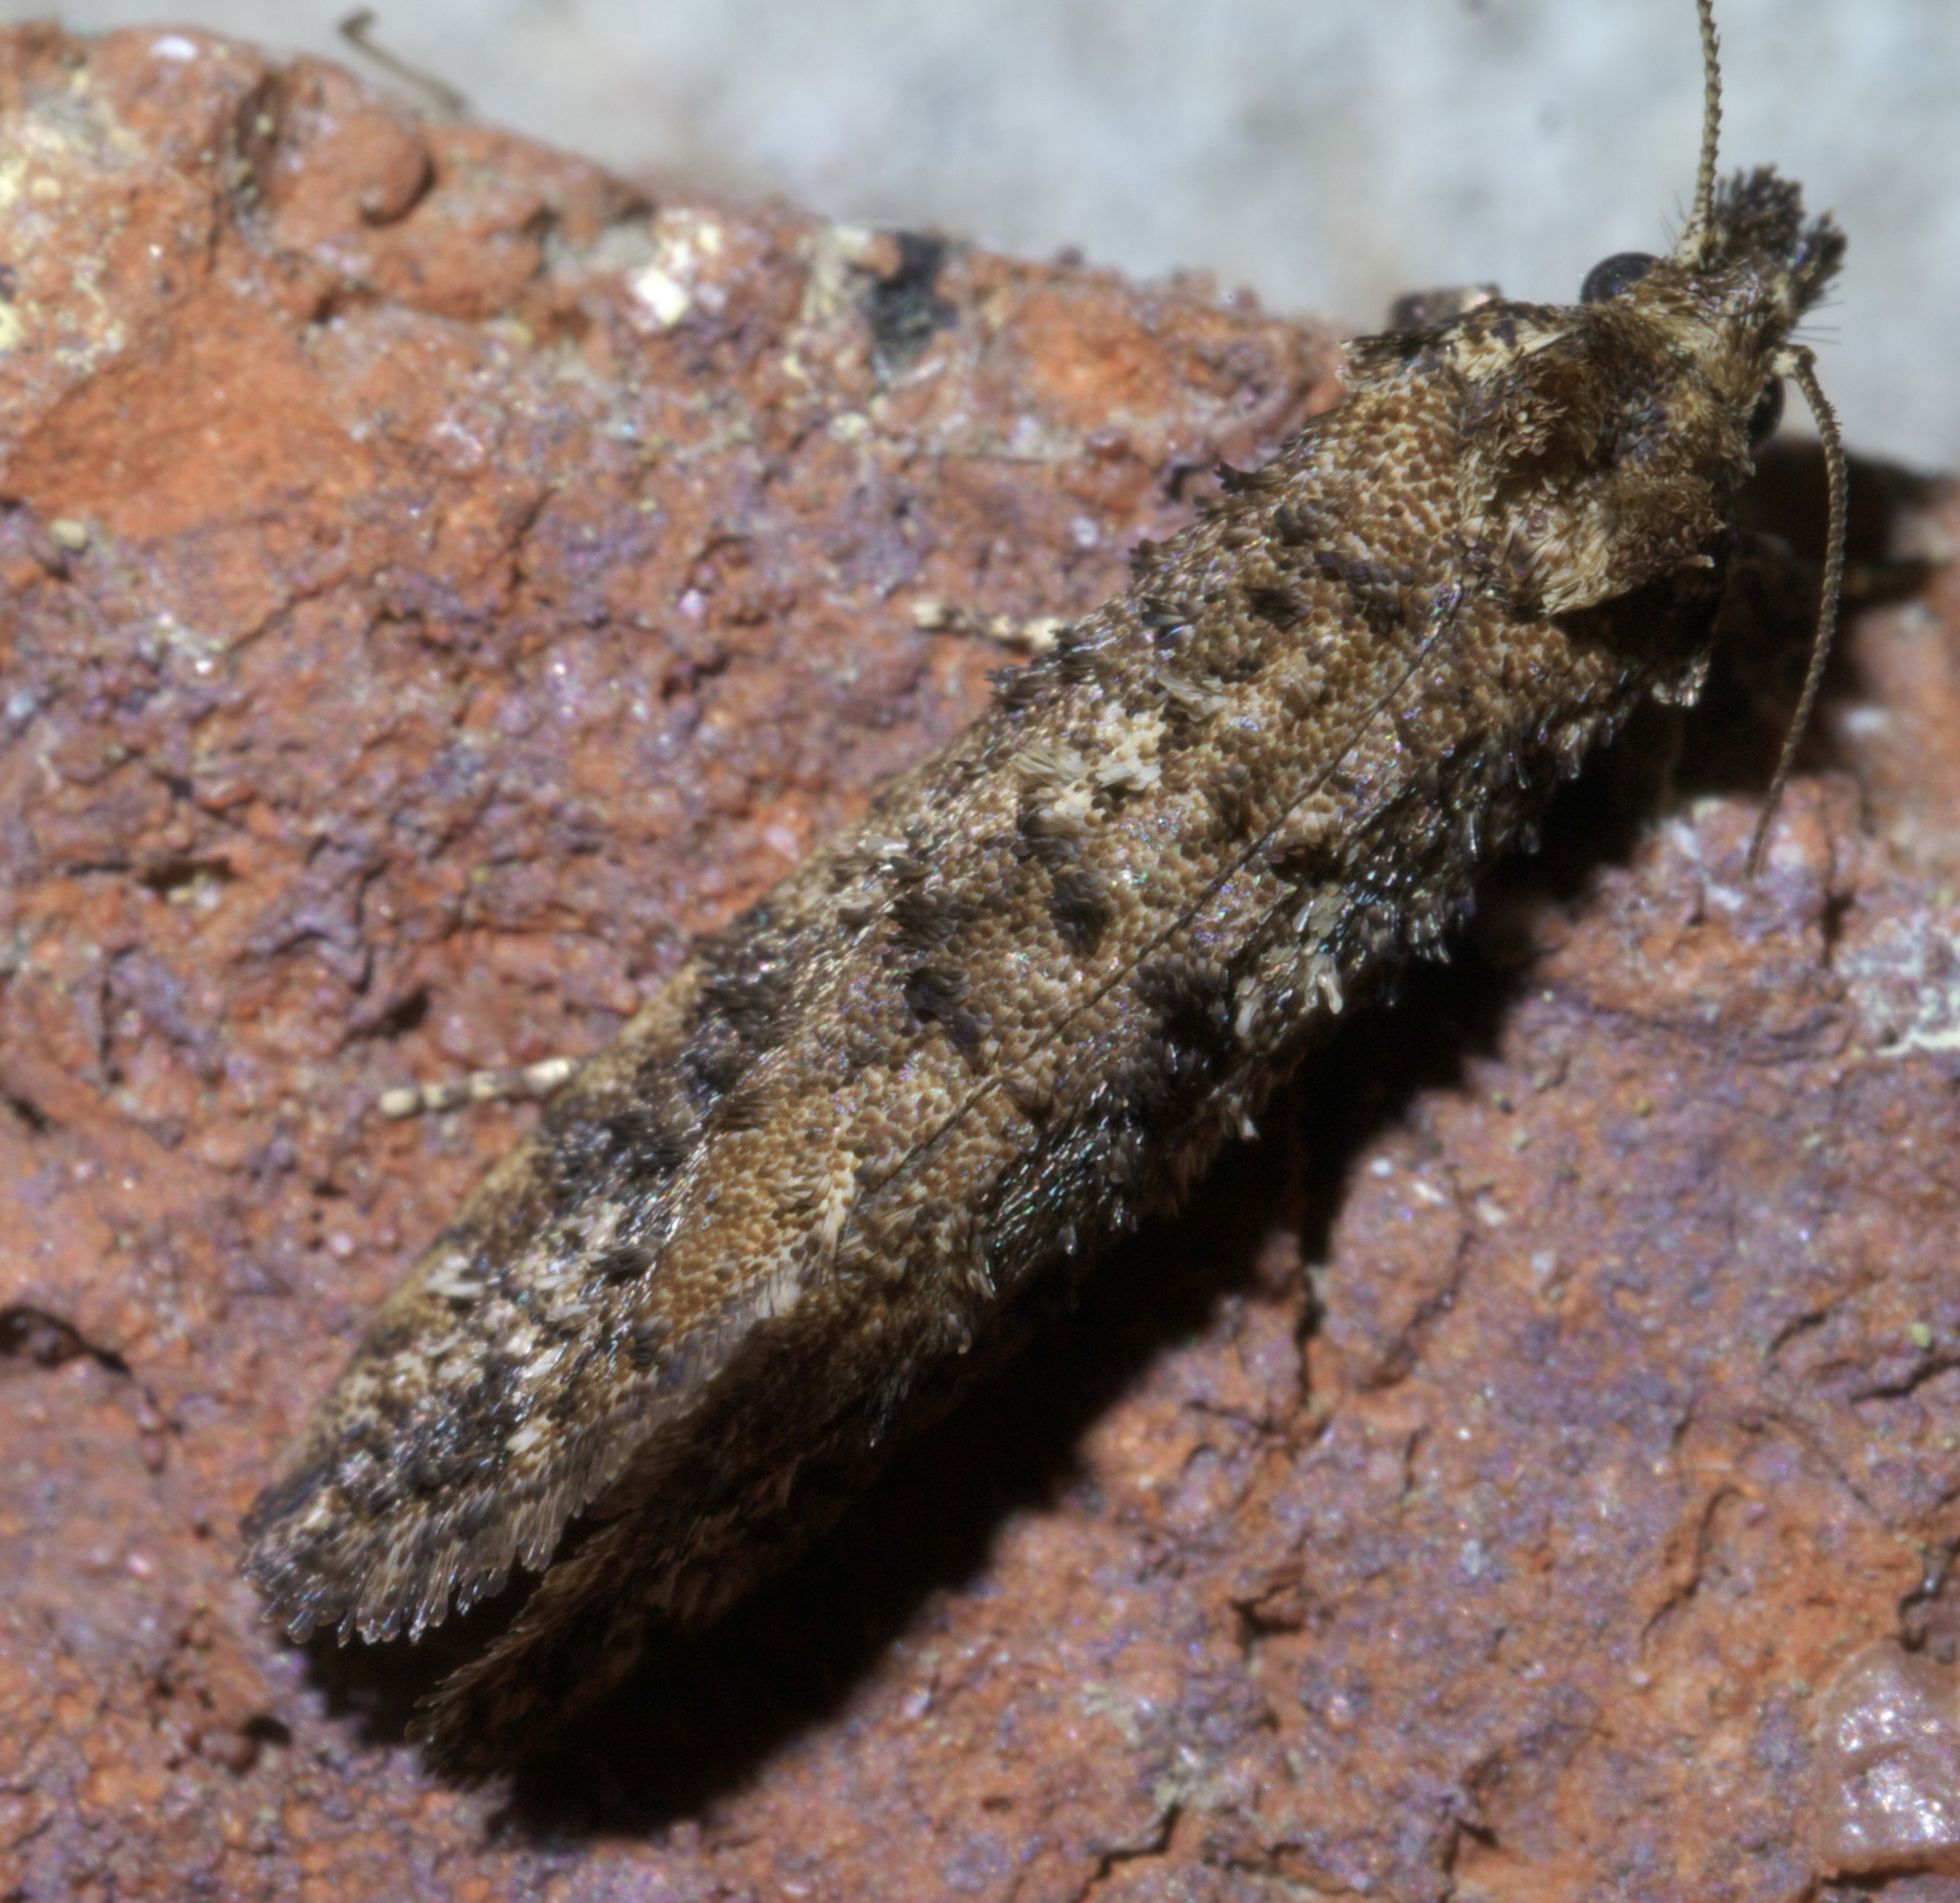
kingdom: Animalia
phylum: Arthropoda
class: Insecta
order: Lepidoptera
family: Tineidae
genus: Acrolophus
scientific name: Acrolophus cressoni
